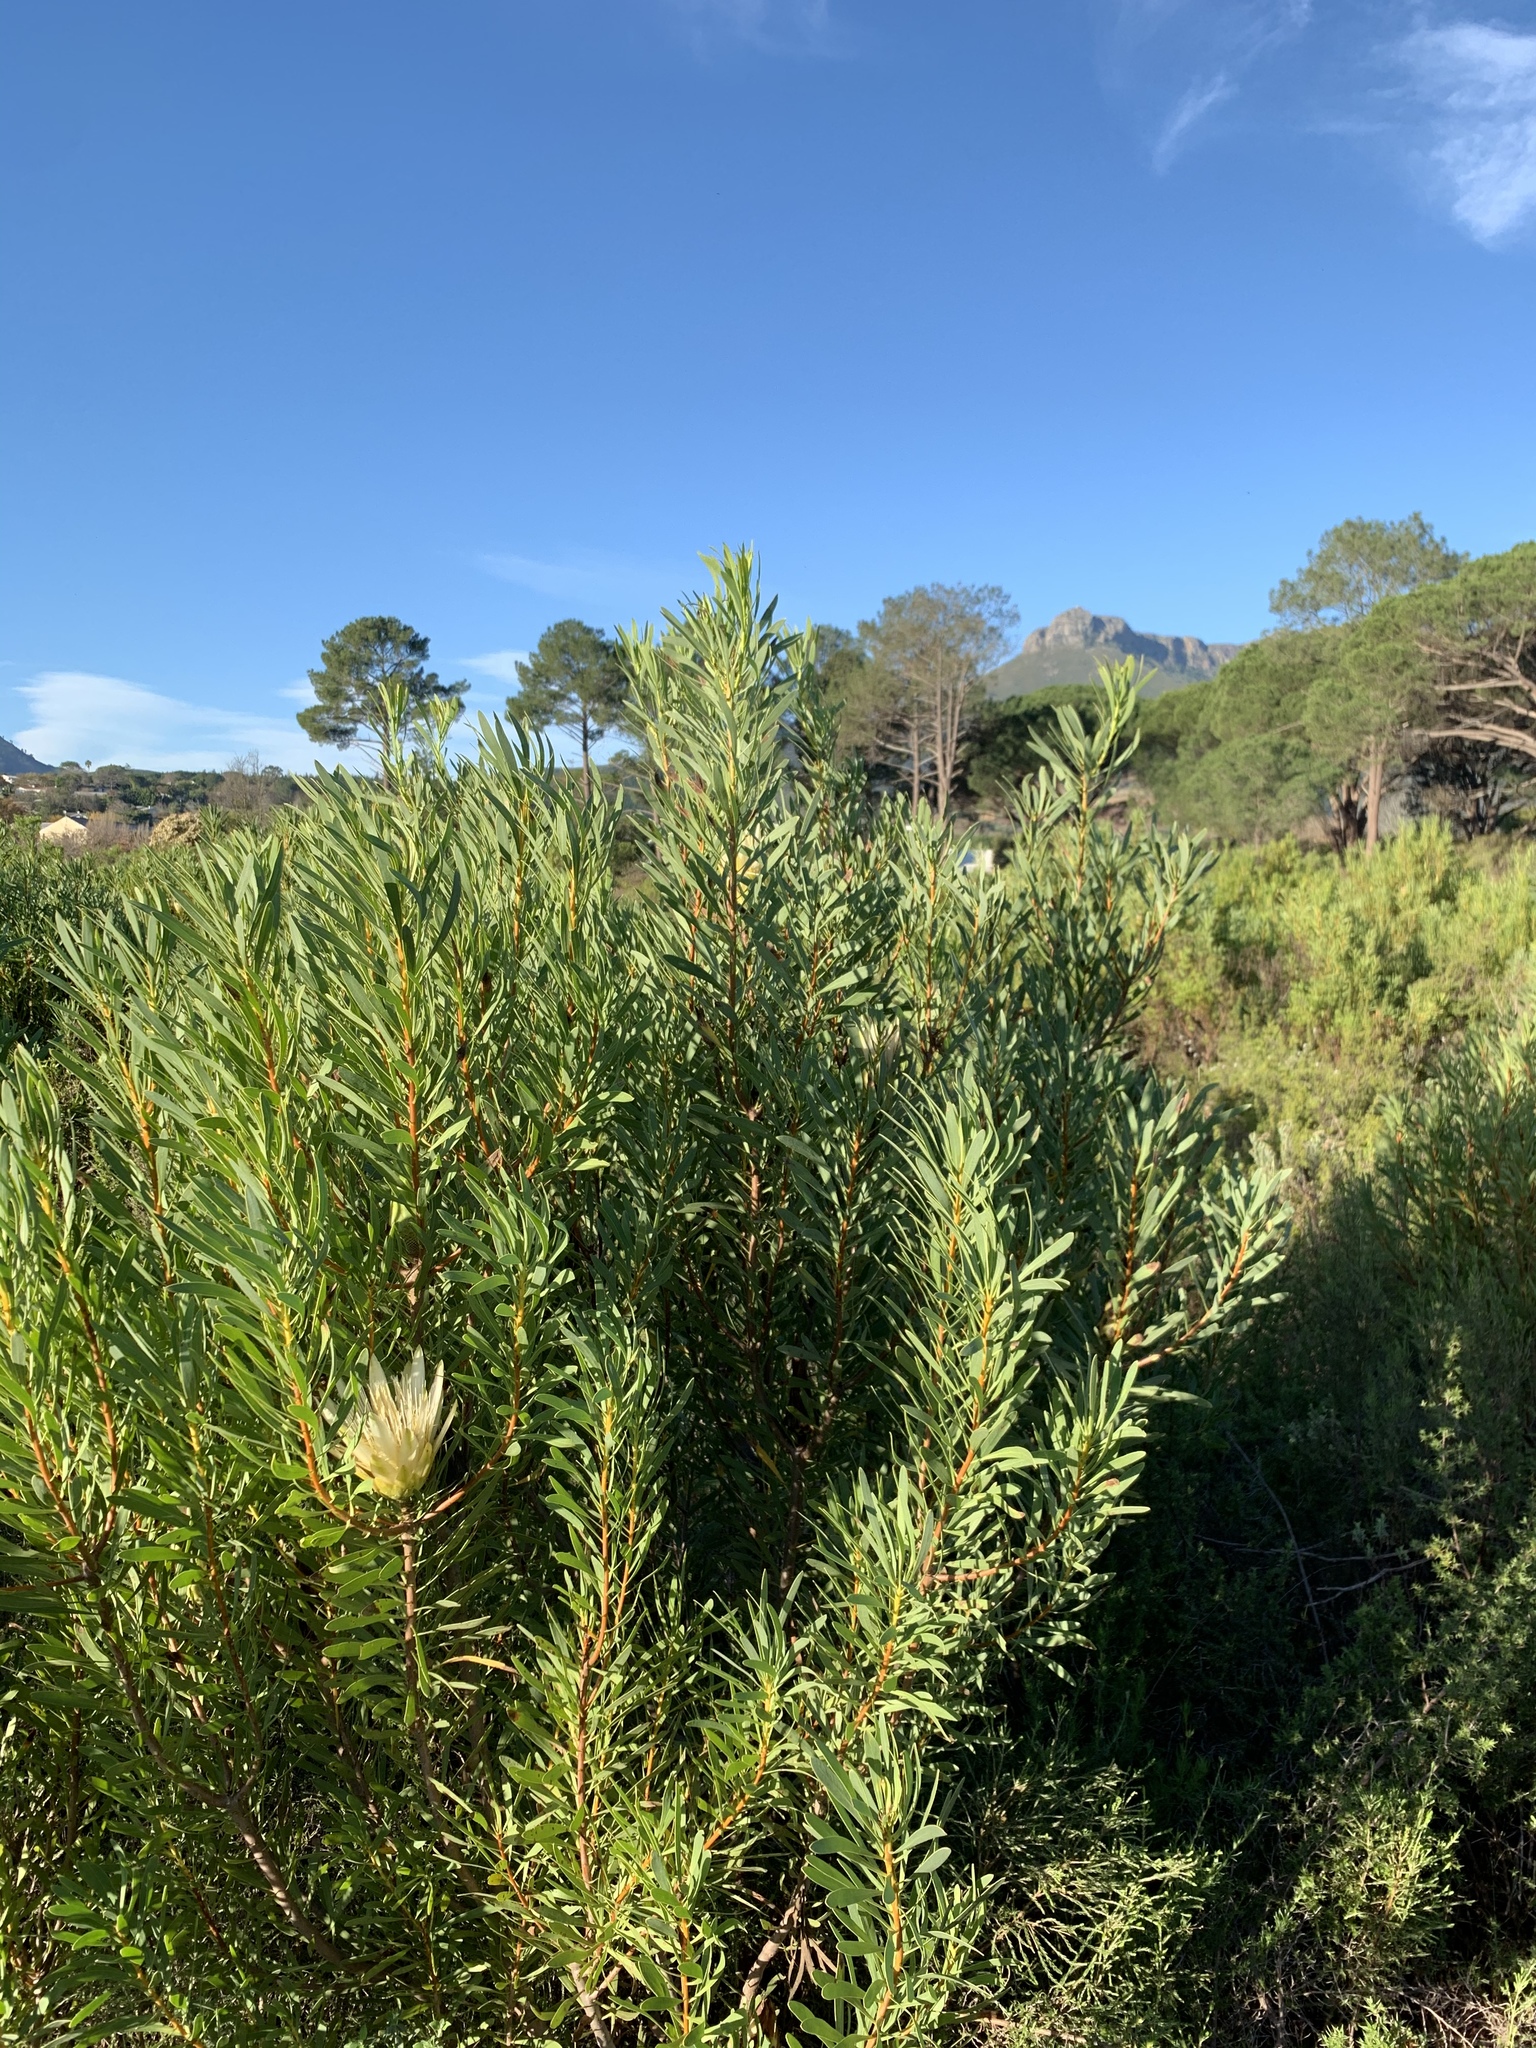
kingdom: Plantae
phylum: Tracheophyta
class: Magnoliopsida
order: Proteales
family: Proteaceae
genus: Protea
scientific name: Protea repens
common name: Sugarbush
